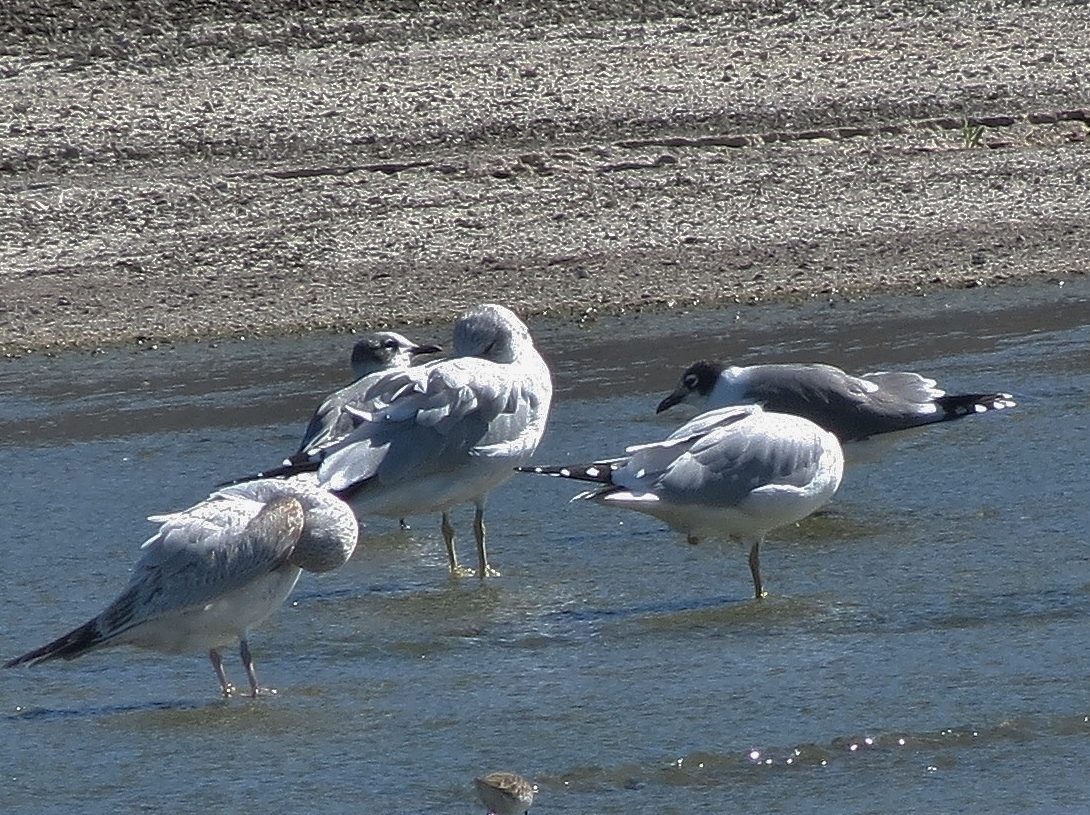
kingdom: Animalia
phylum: Chordata
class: Aves
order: Charadriiformes
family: Laridae
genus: Leucophaeus
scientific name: Leucophaeus pipixcan
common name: Franklin's gull
